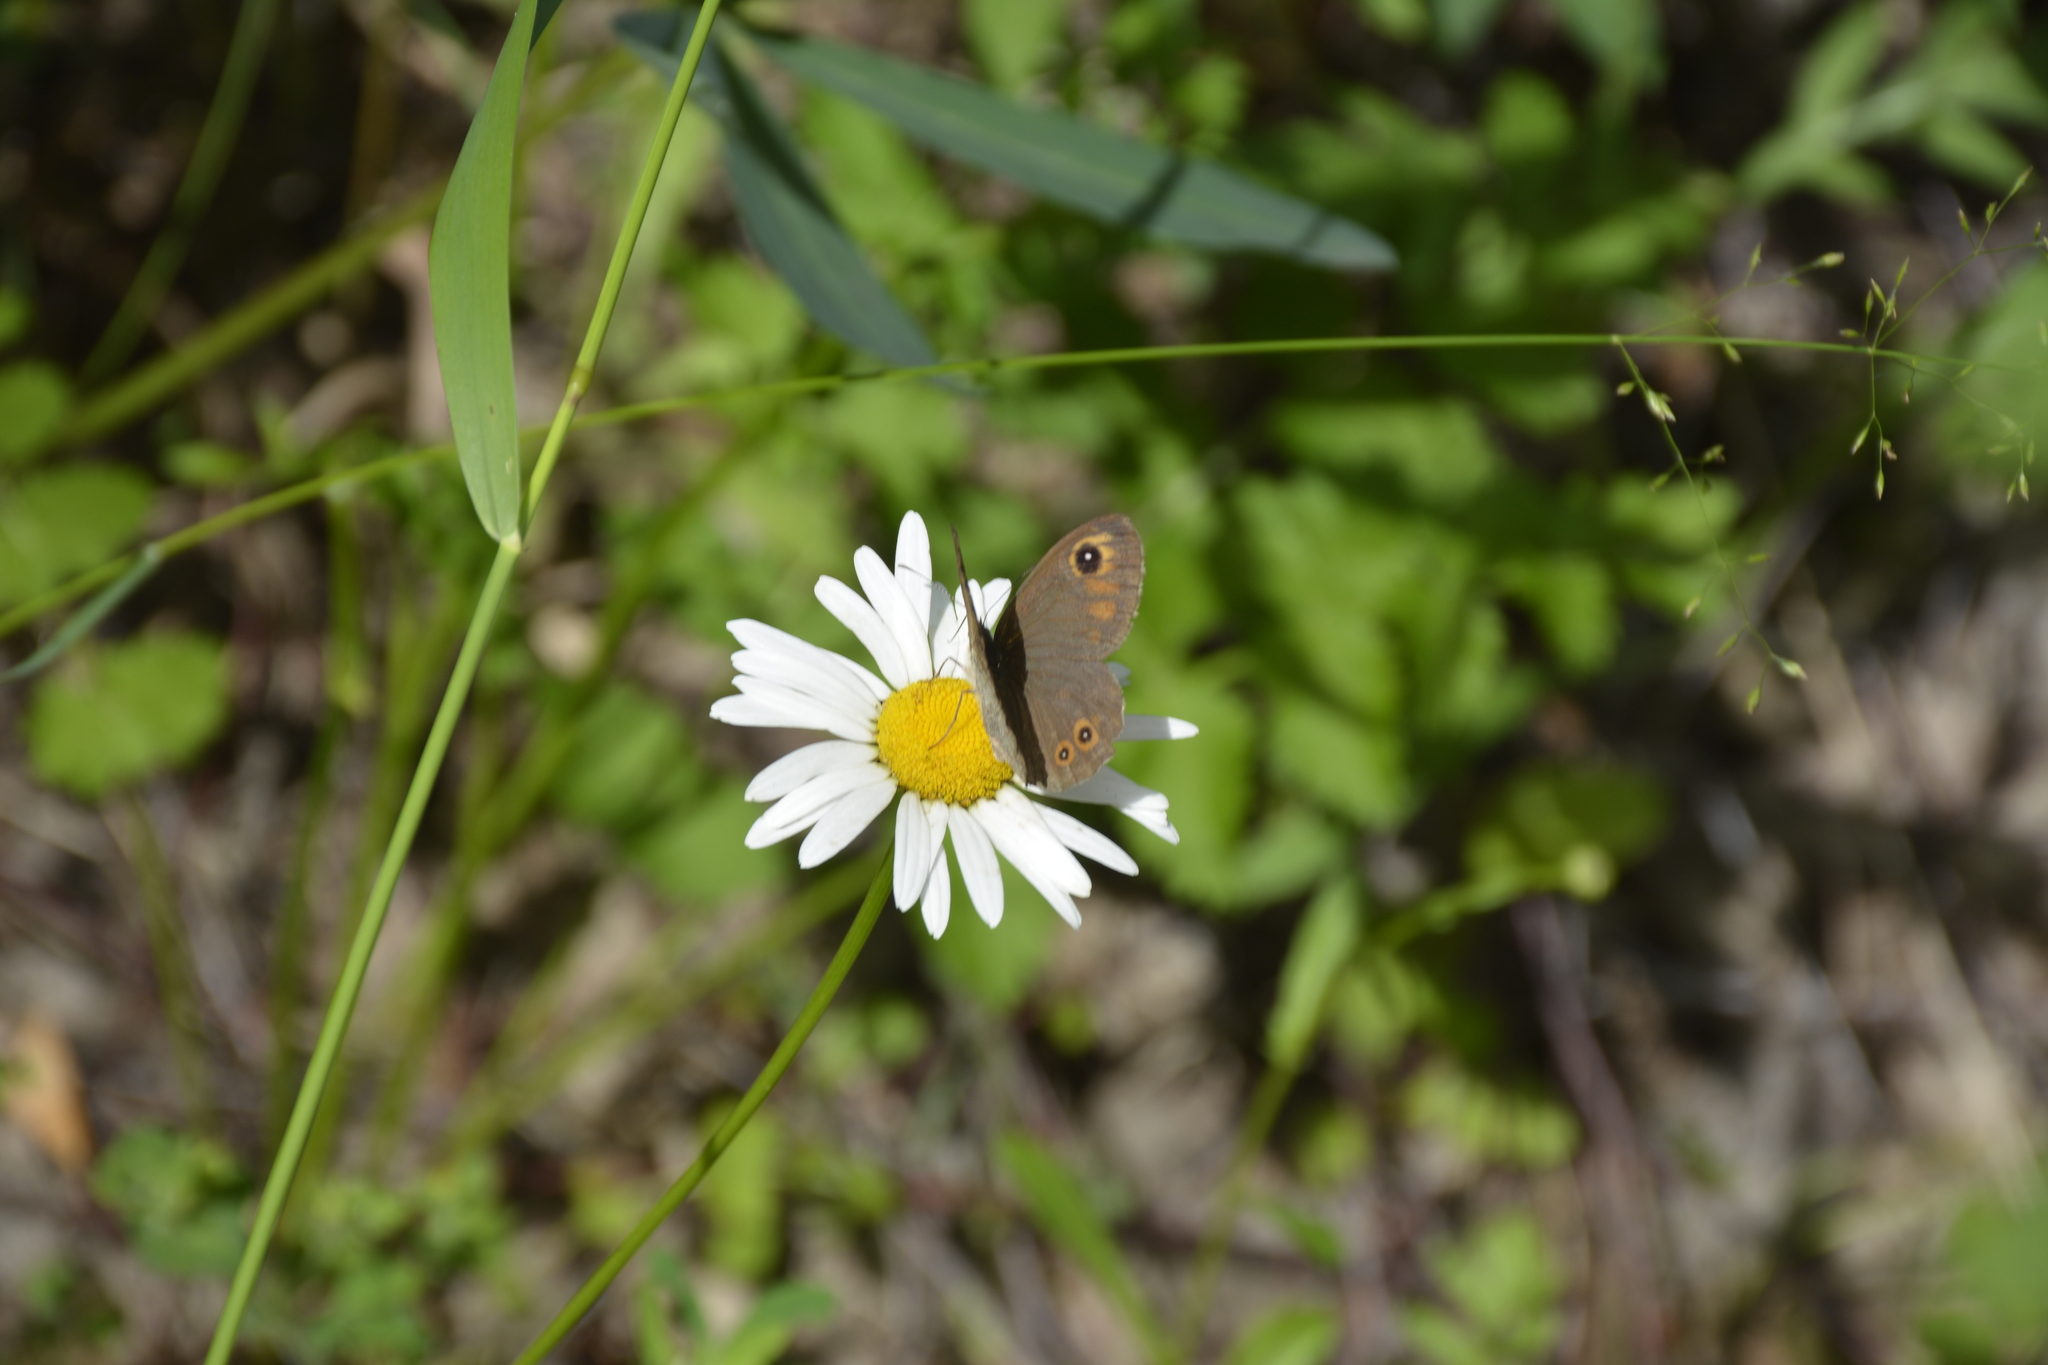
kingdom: Animalia
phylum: Arthropoda
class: Insecta
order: Lepidoptera
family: Nymphalidae
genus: Pararge
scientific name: Pararge Lasiommata maera
